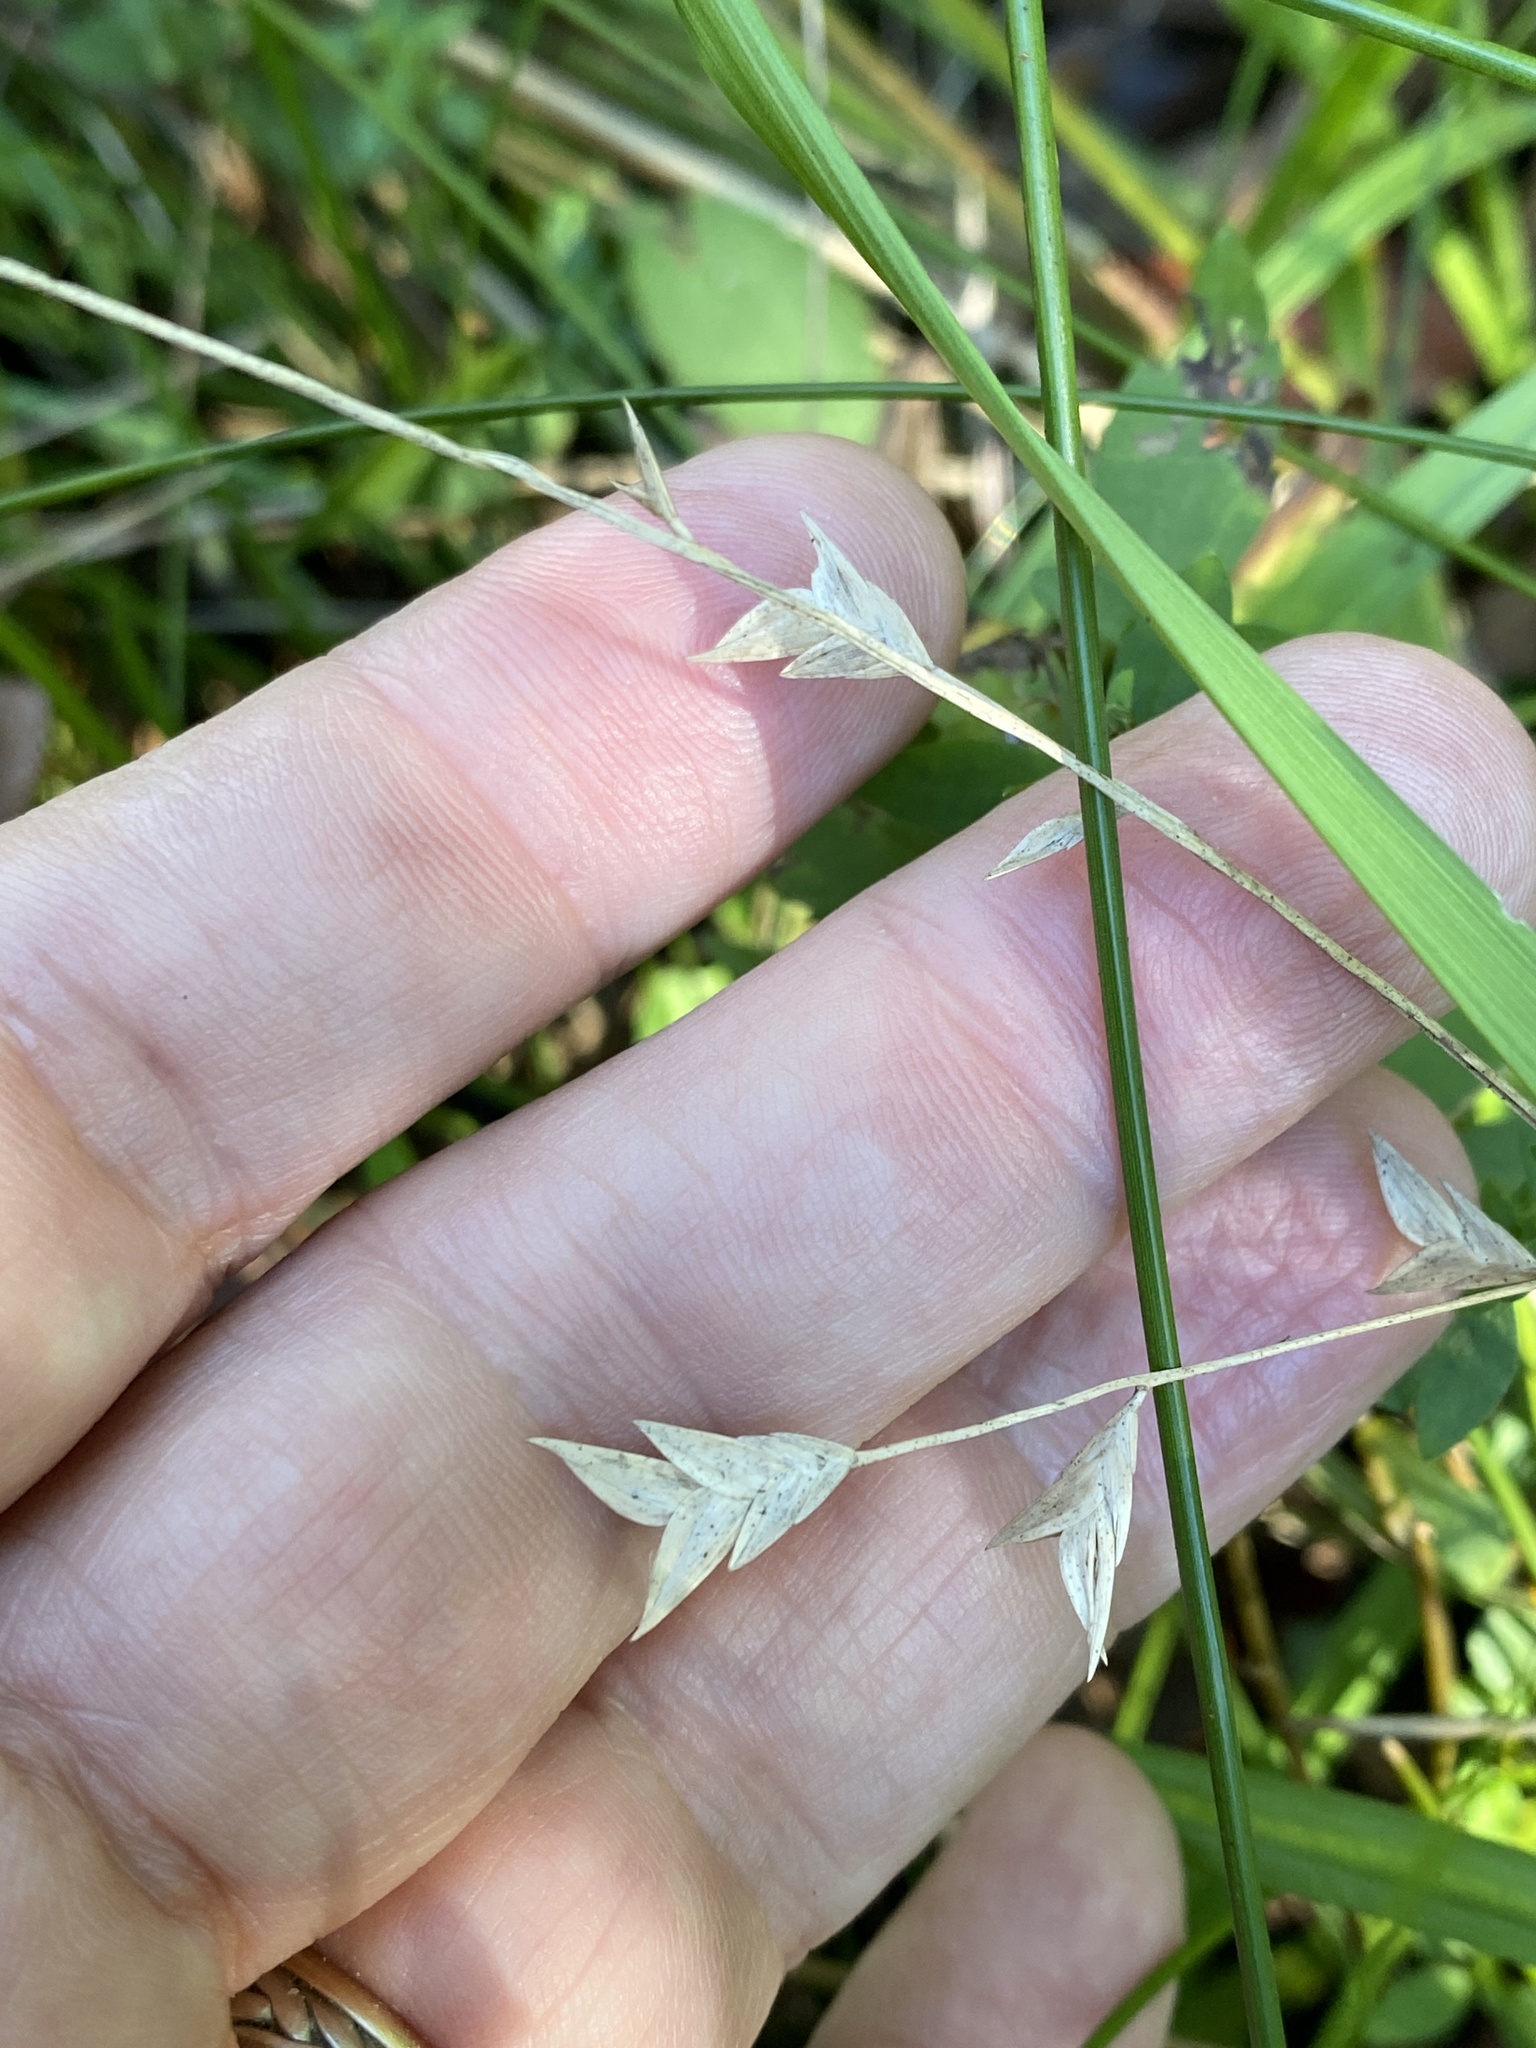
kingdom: Plantae
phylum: Tracheophyta
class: Liliopsida
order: Poales
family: Poaceae
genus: Chasmanthium
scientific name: Chasmanthium nitidum
